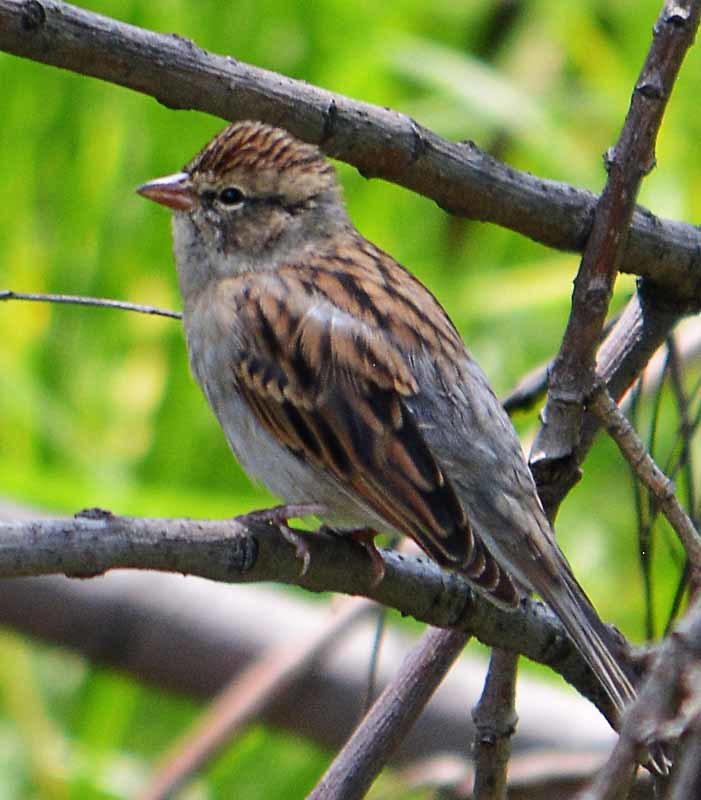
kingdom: Animalia
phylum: Chordata
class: Aves
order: Passeriformes
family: Passerellidae
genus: Spizella
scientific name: Spizella passerina
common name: Chipping sparrow
